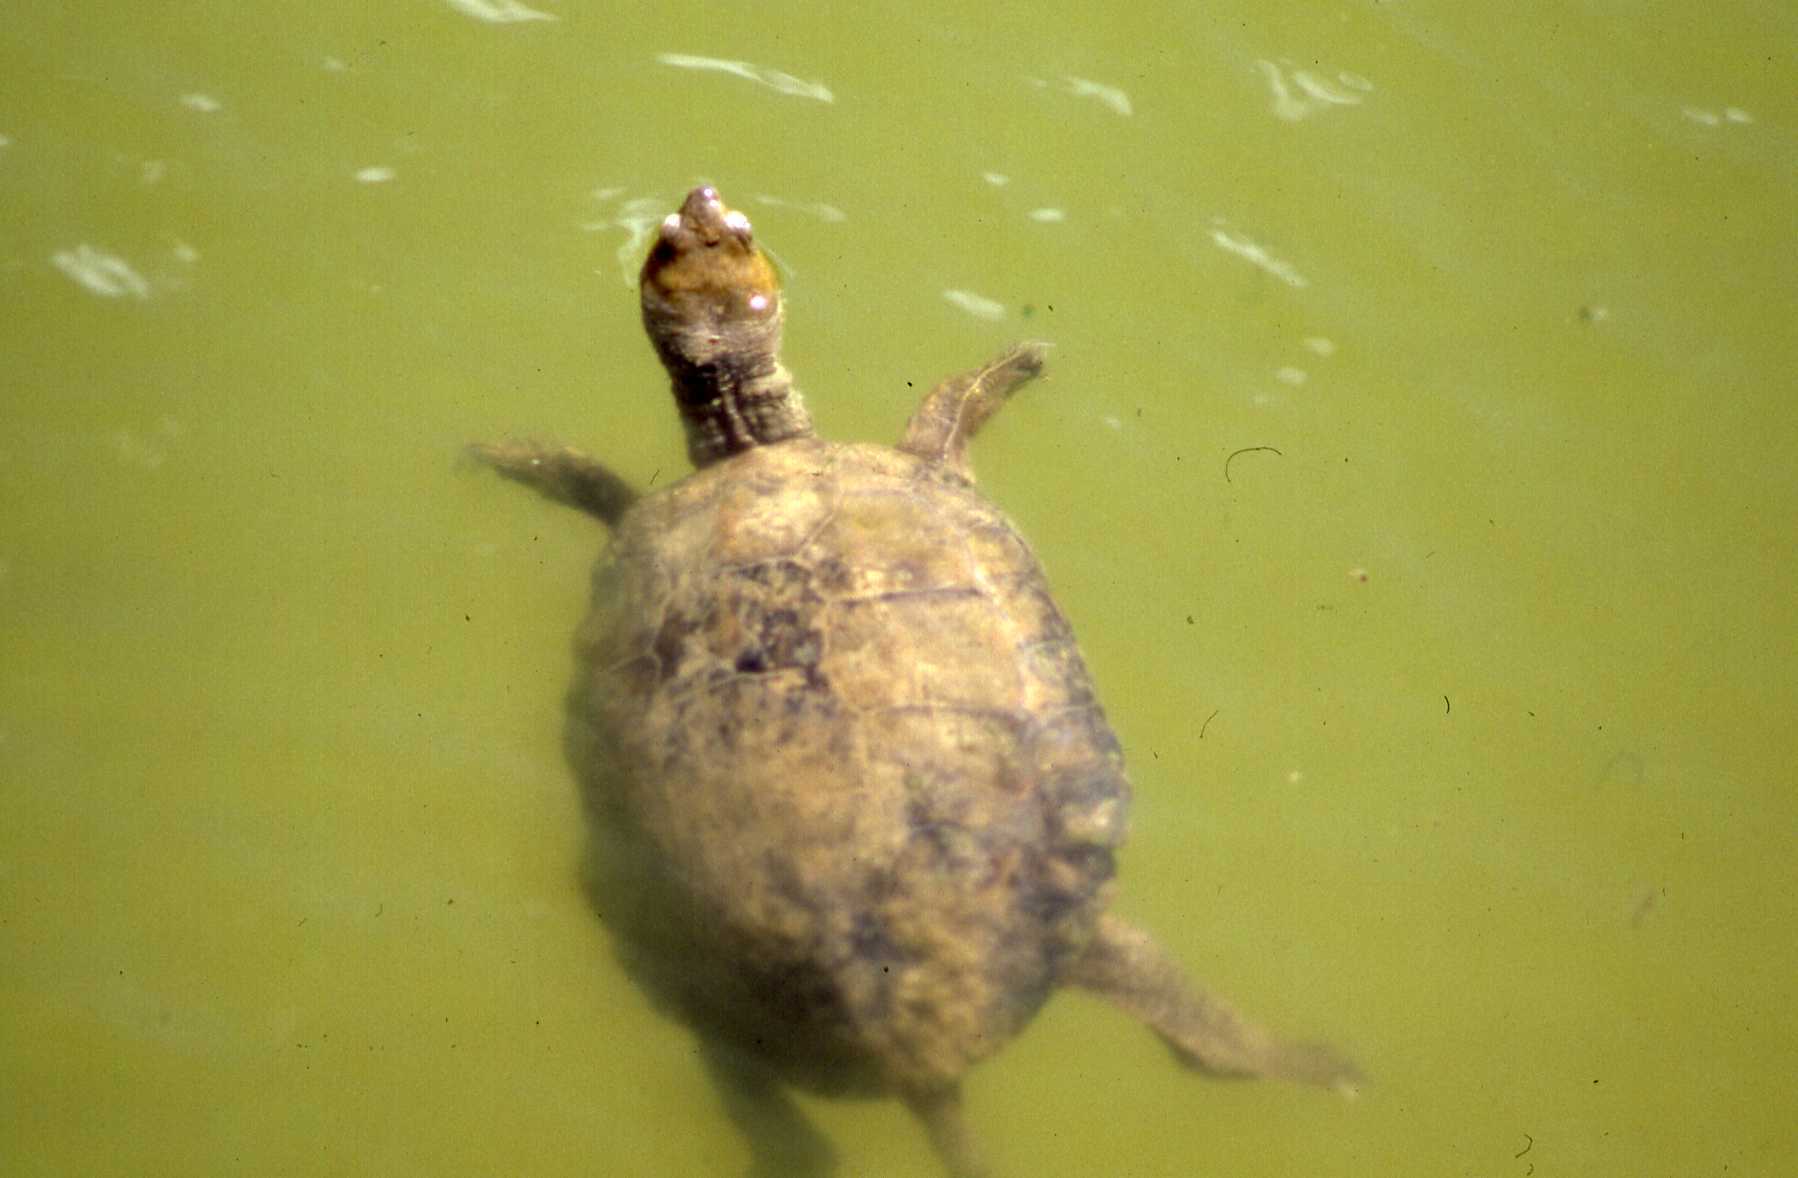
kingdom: Animalia
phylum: Chordata
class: Testudines
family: Geoemydidae
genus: Mauremys
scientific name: Mauremys leprosa
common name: Mediterranean pond turtle
